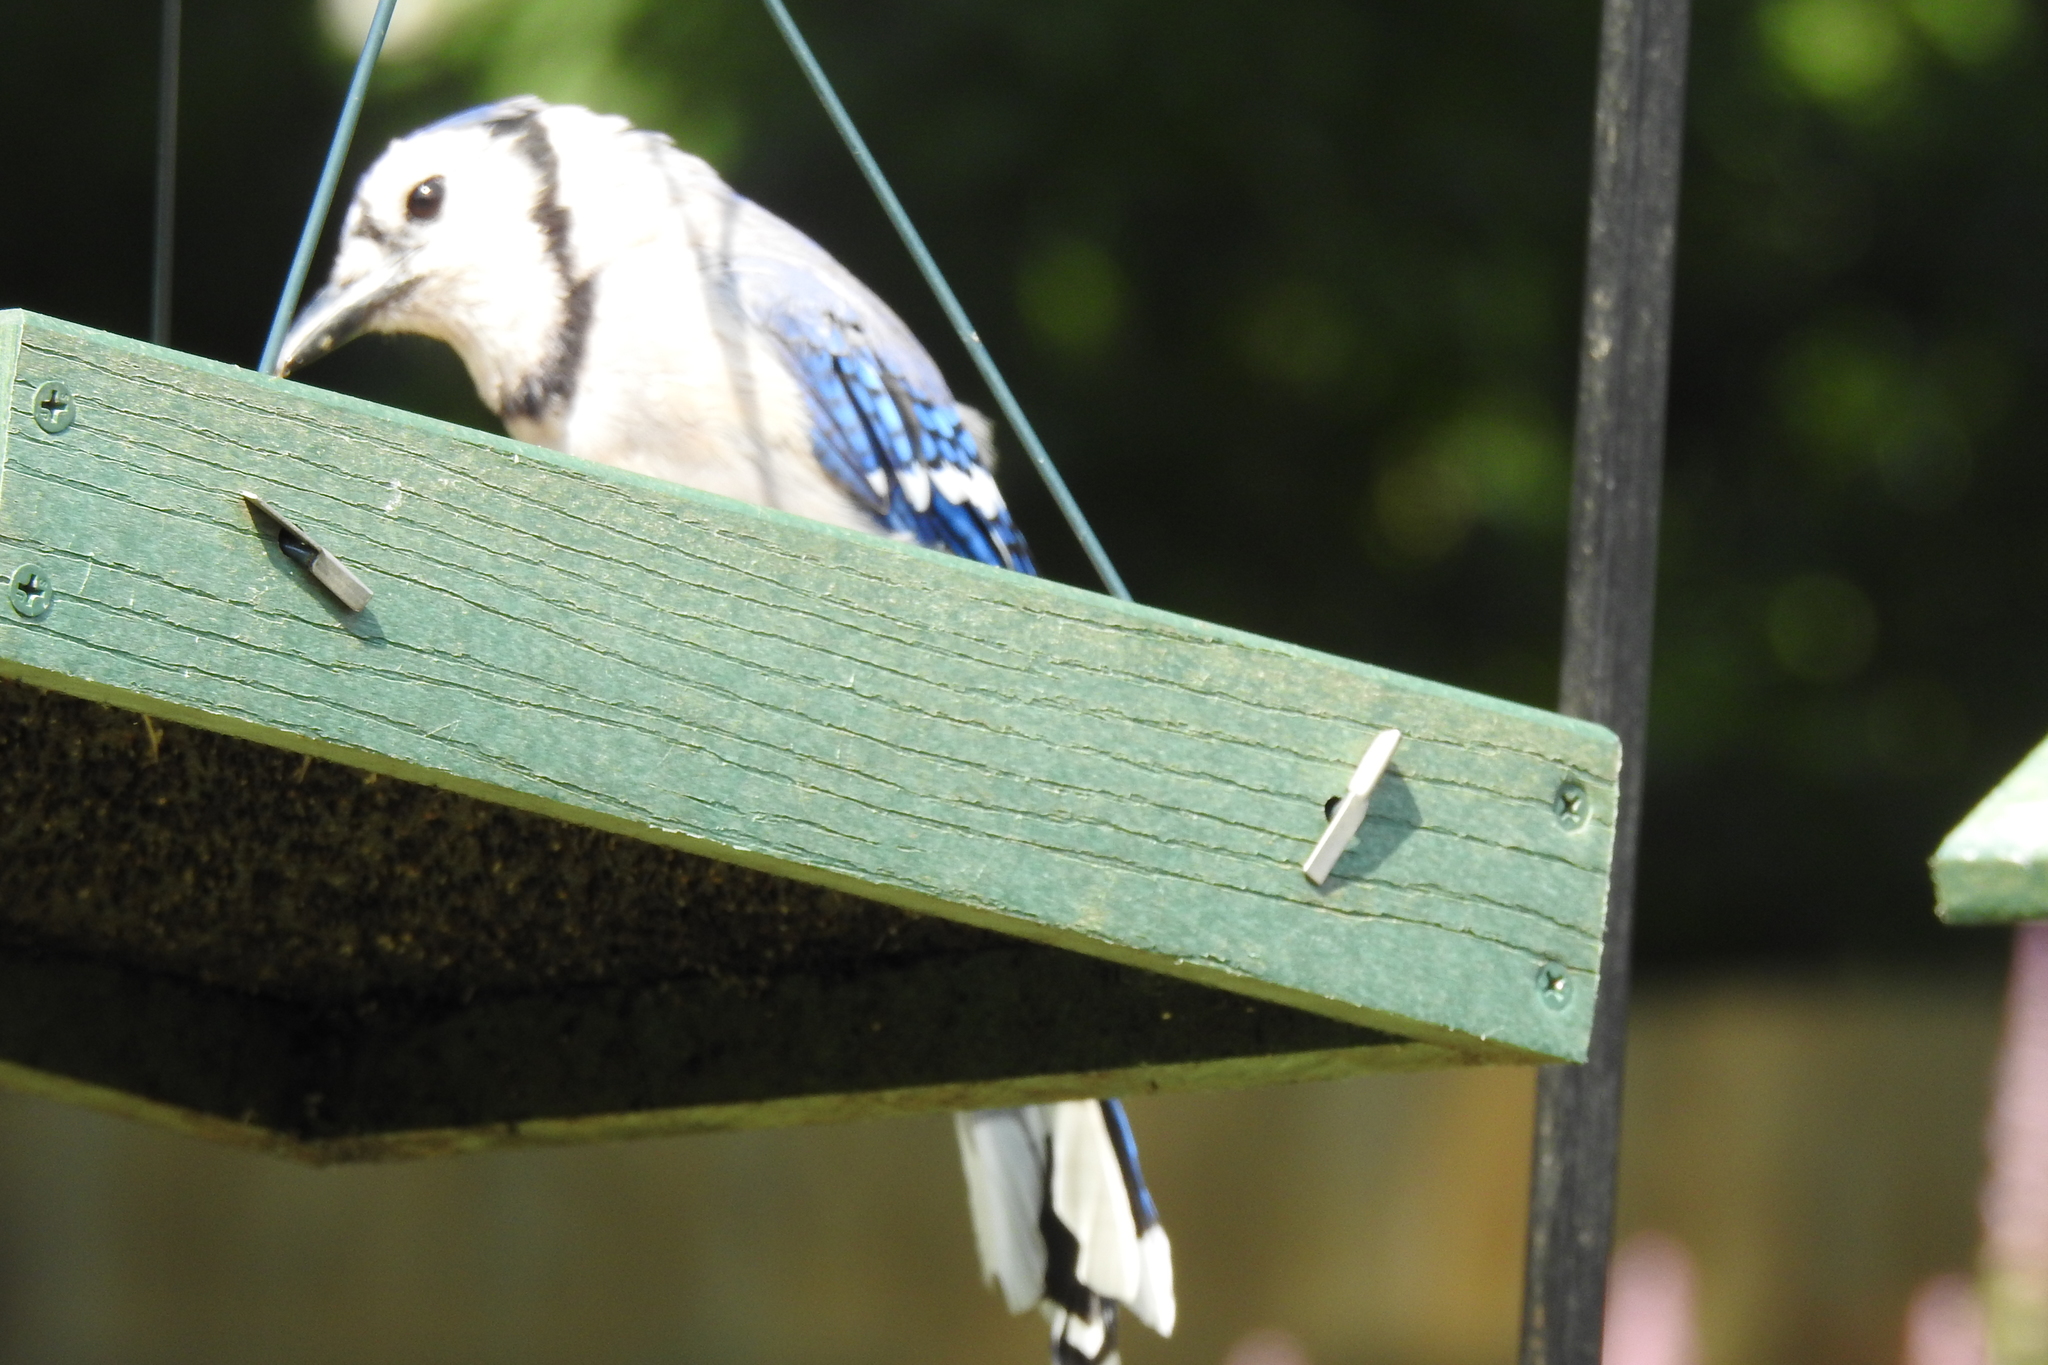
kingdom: Animalia
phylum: Chordata
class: Aves
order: Passeriformes
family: Corvidae
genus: Cyanocitta
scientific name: Cyanocitta cristata
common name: Blue jay
